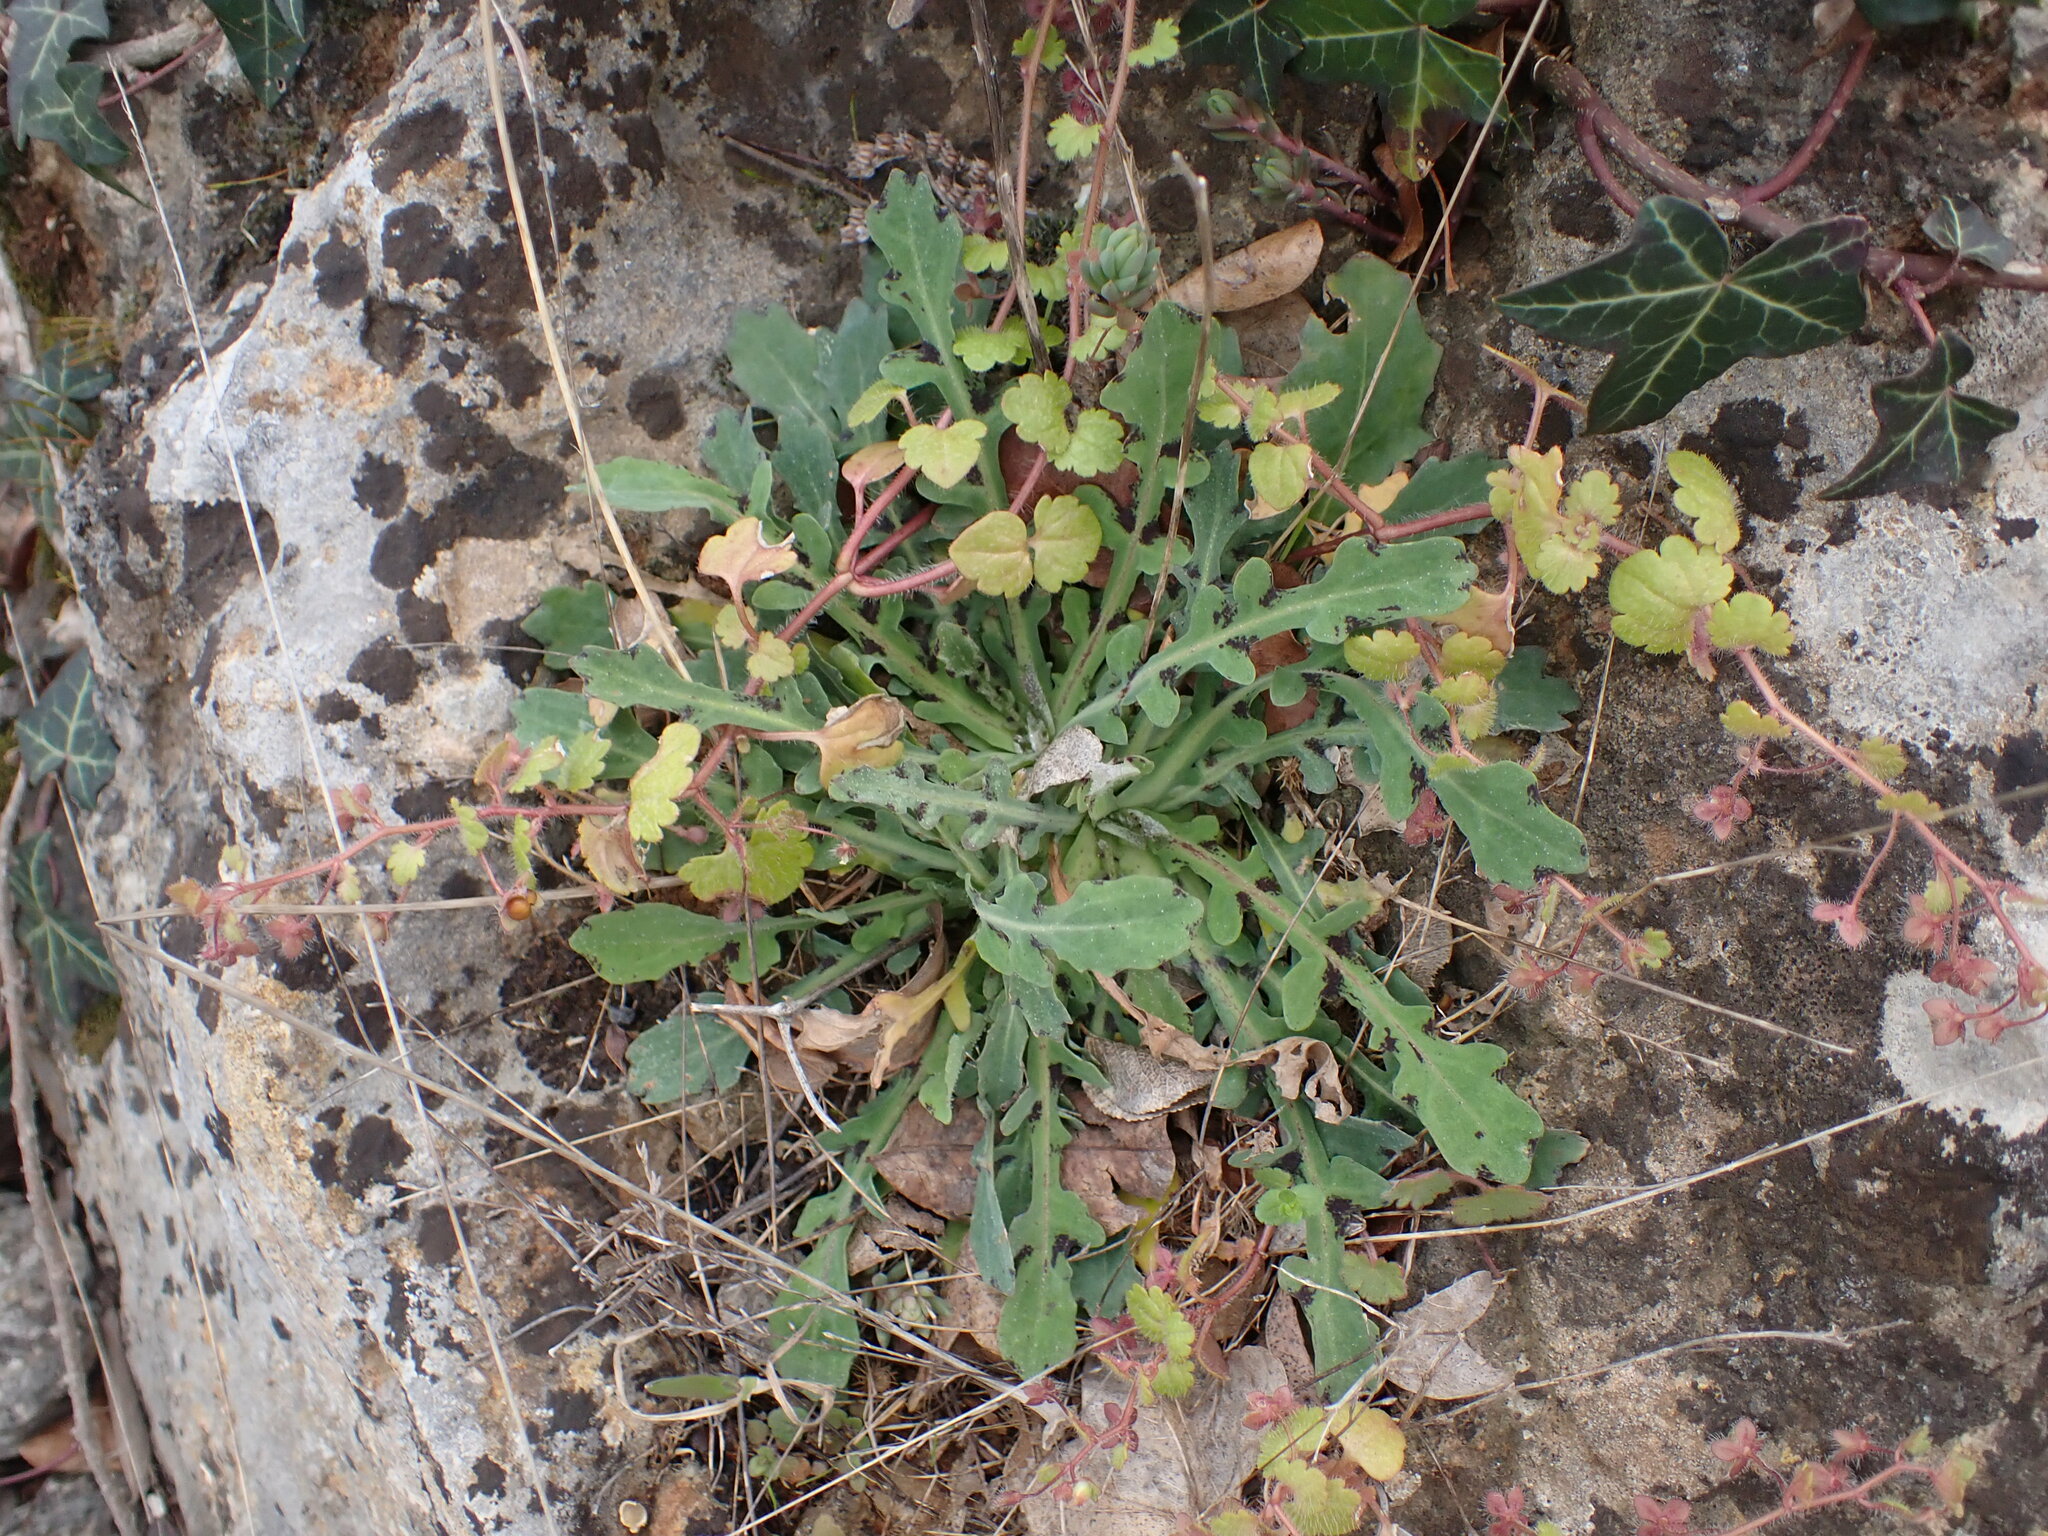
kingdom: Plantae
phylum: Tracheophyta
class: Magnoliopsida
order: Asterales
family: Asteraceae
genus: Reichardia
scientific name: Reichardia picroides
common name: Common brighteyes
